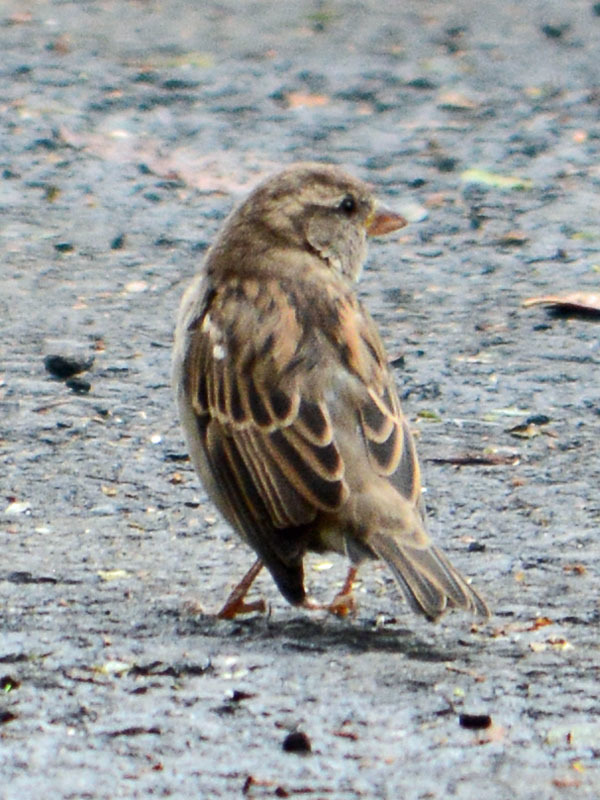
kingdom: Animalia
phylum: Chordata
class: Aves
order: Passeriformes
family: Passeridae
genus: Passer
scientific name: Passer domesticus
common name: House sparrow
